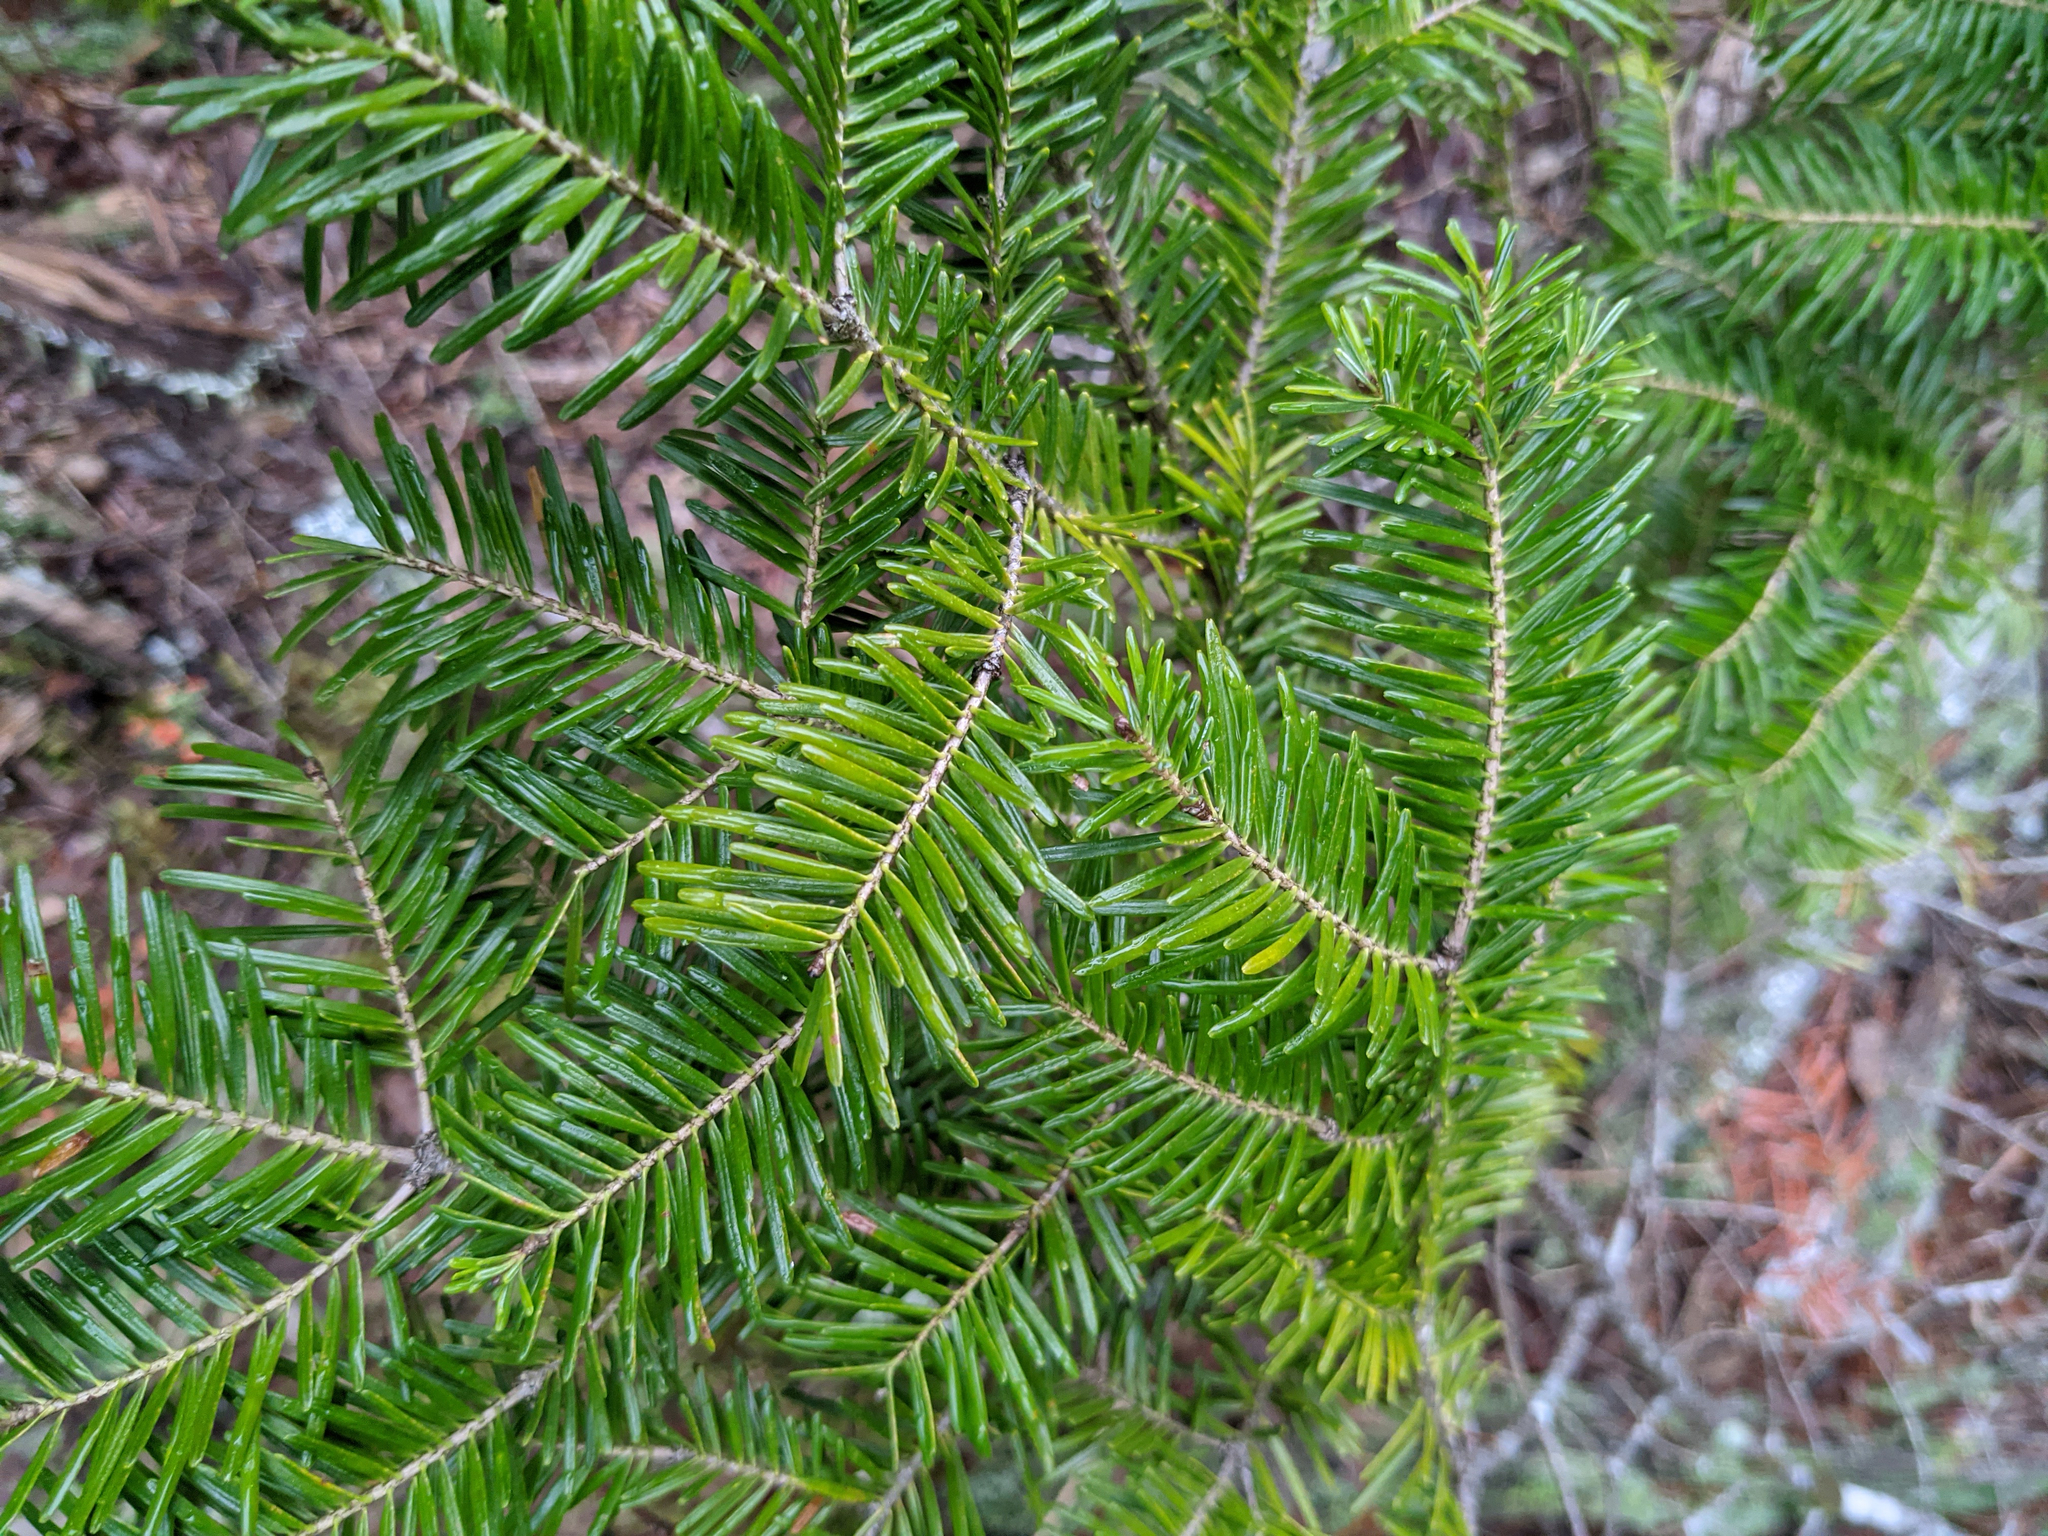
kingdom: Plantae
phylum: Tracheophyta
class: Pinopsida
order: Pinales
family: Pinaceae
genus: Abies
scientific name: Abies balsamea
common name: Balsam fir
